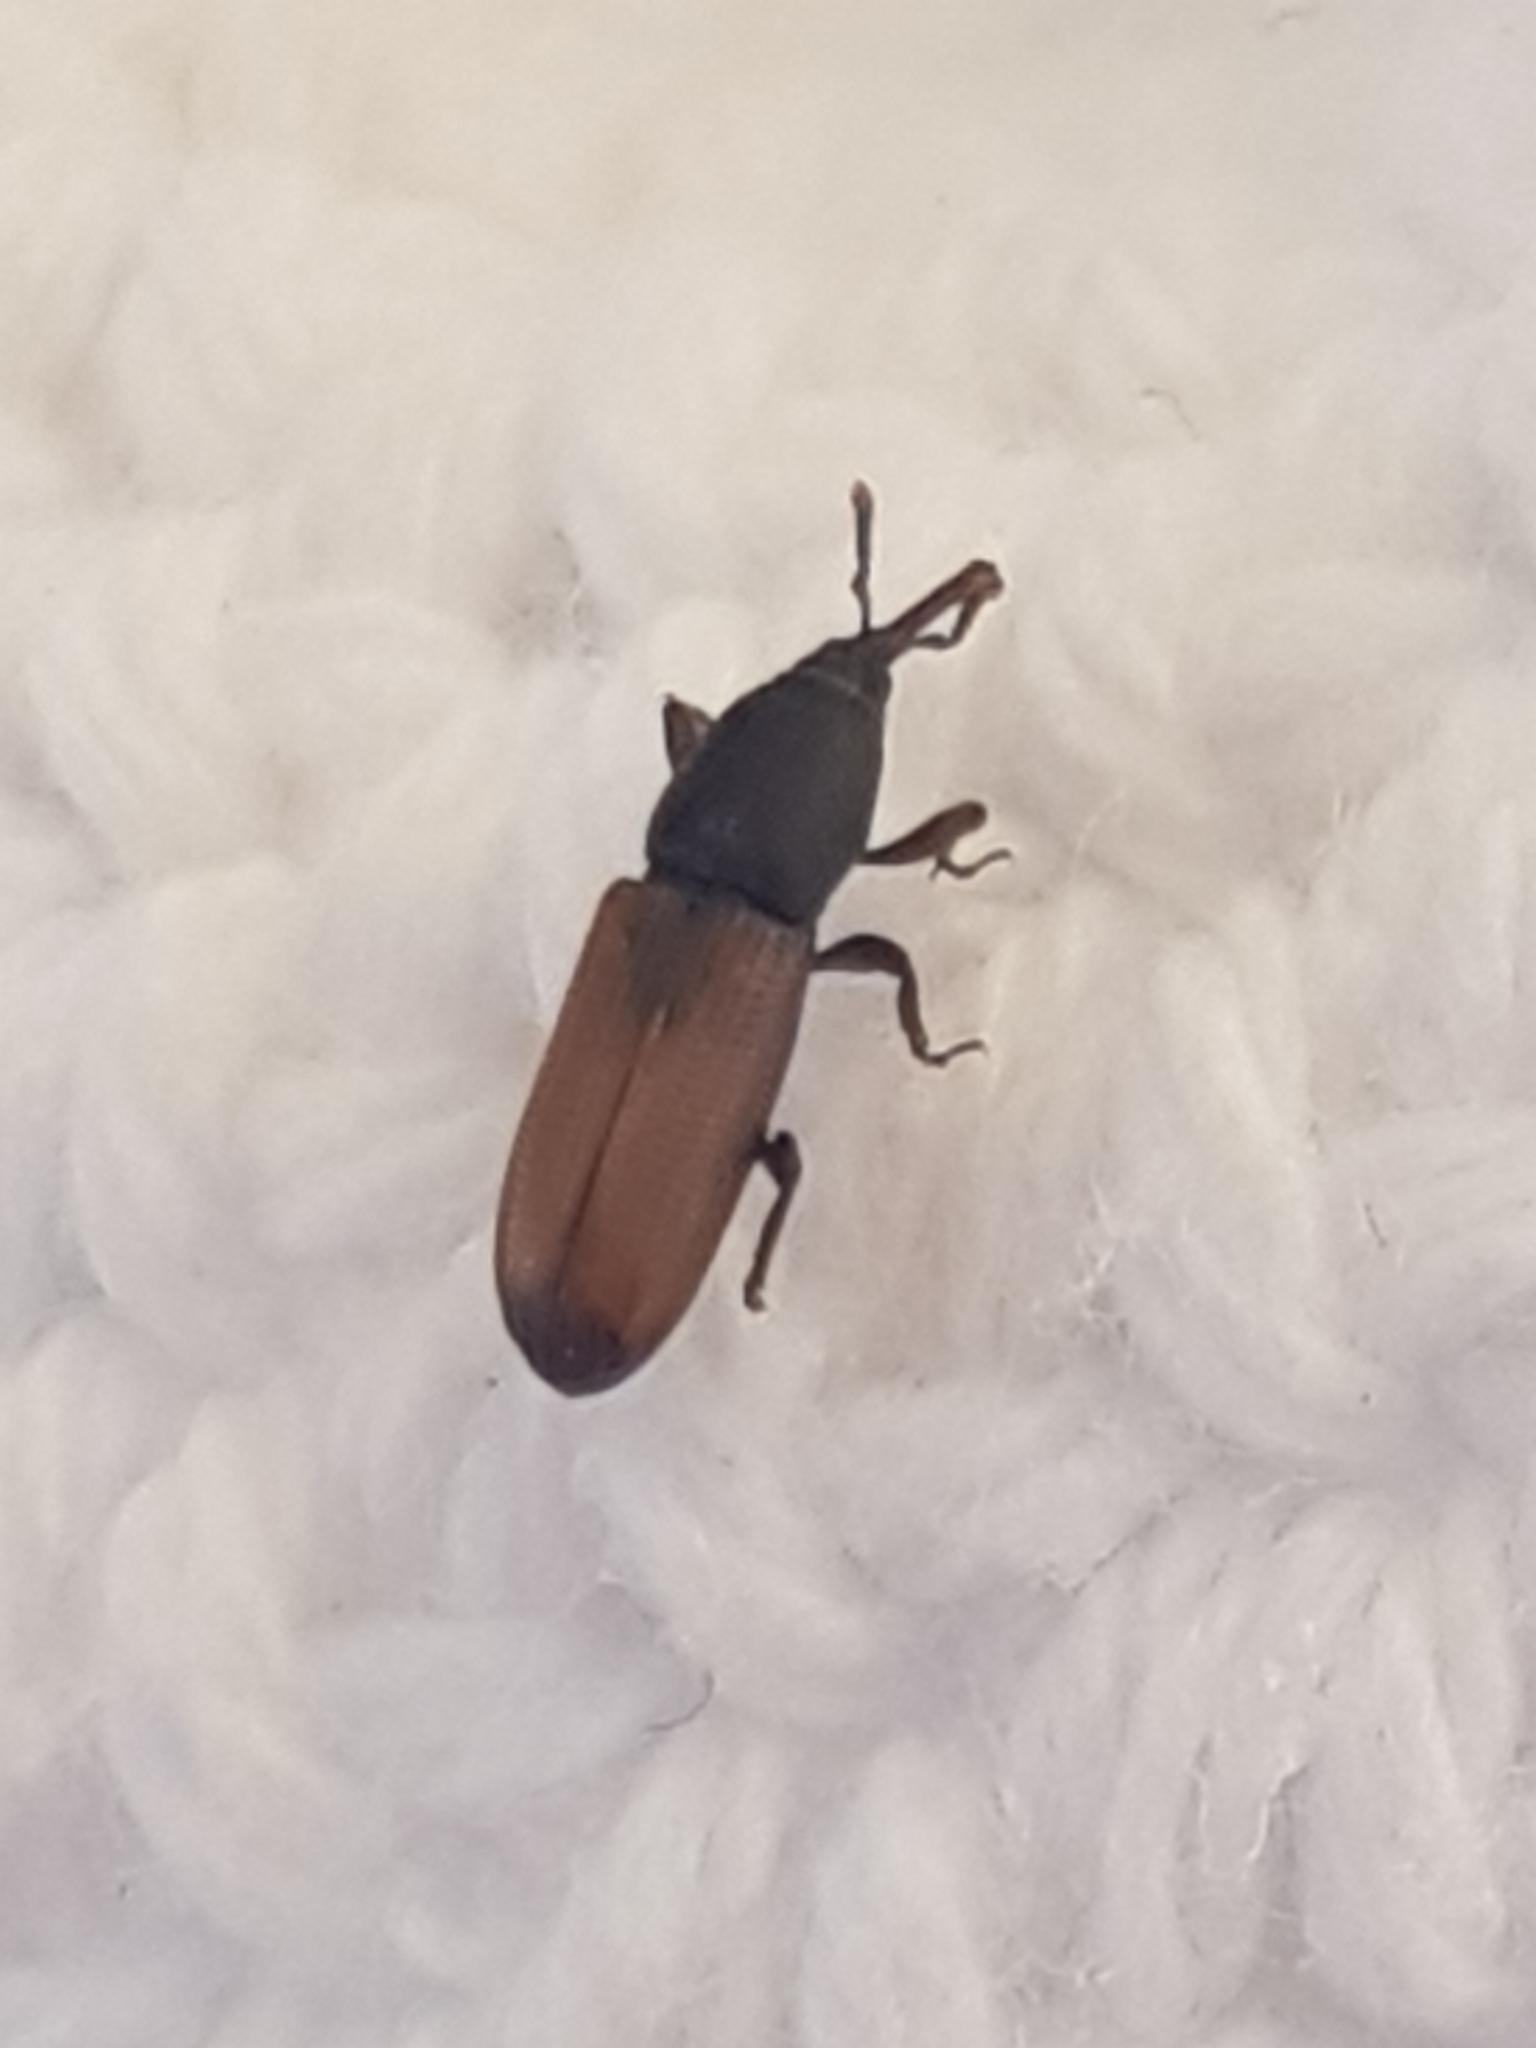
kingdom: Animalia
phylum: Arthropoda
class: Insecta
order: Coleoptera
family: Curculionidae
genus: Mesites
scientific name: Mesites pallidipennis
